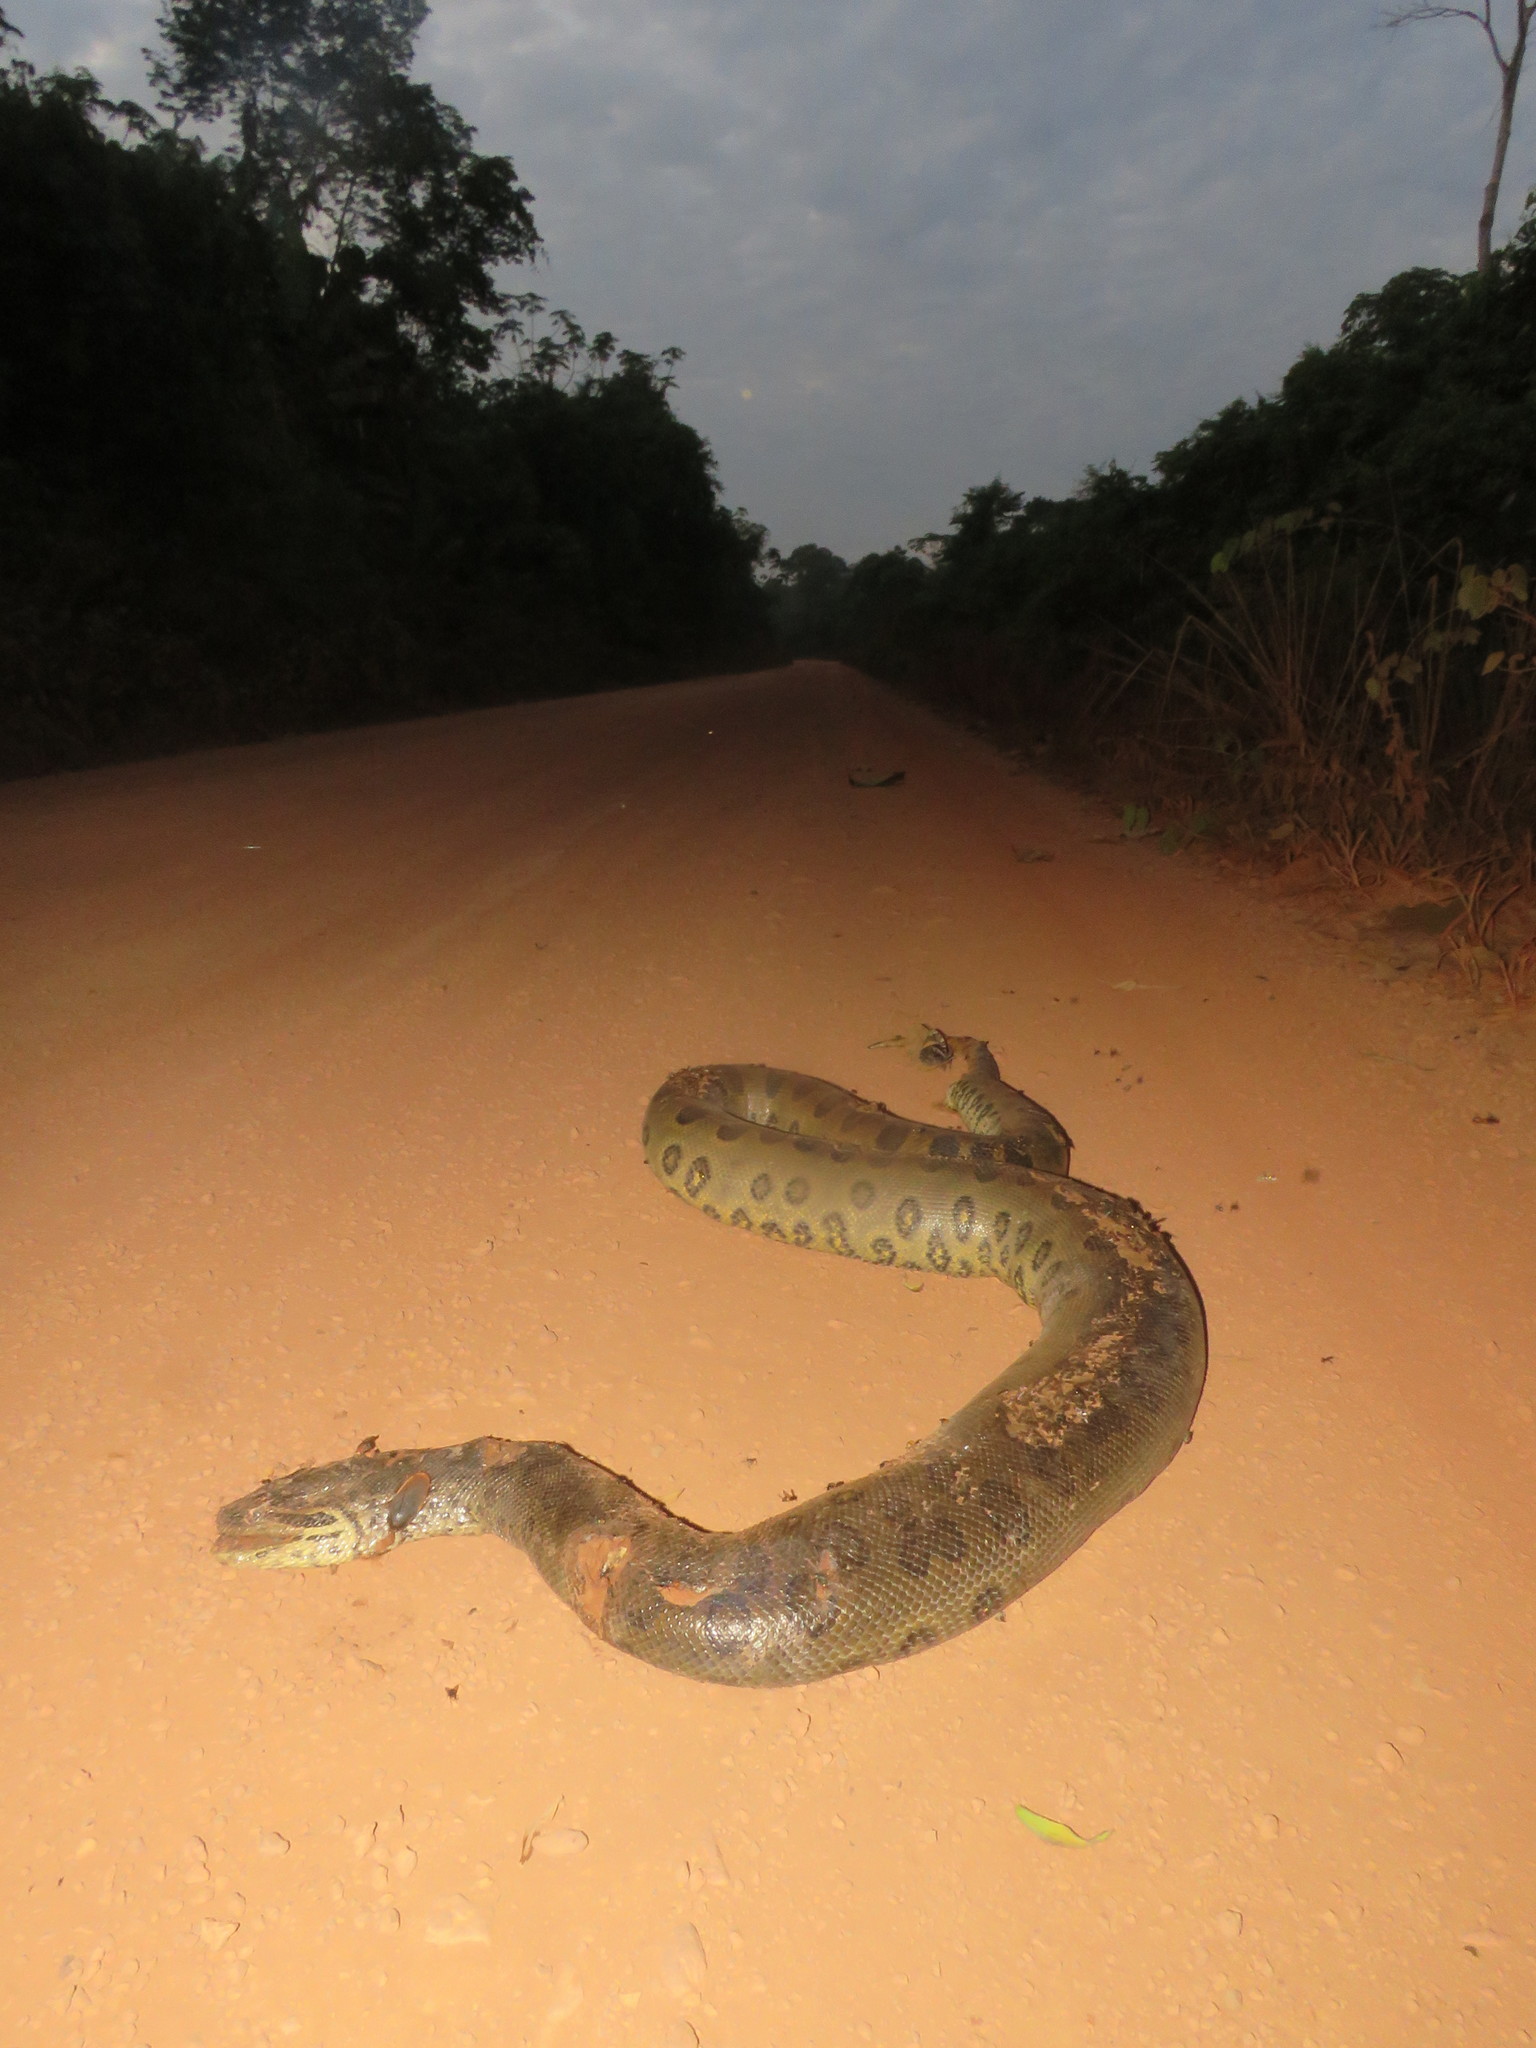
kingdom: Animalia
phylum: Chordata
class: Squamata
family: Boidae
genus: Eunectes
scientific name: Eunectes murinus
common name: Anaconda
